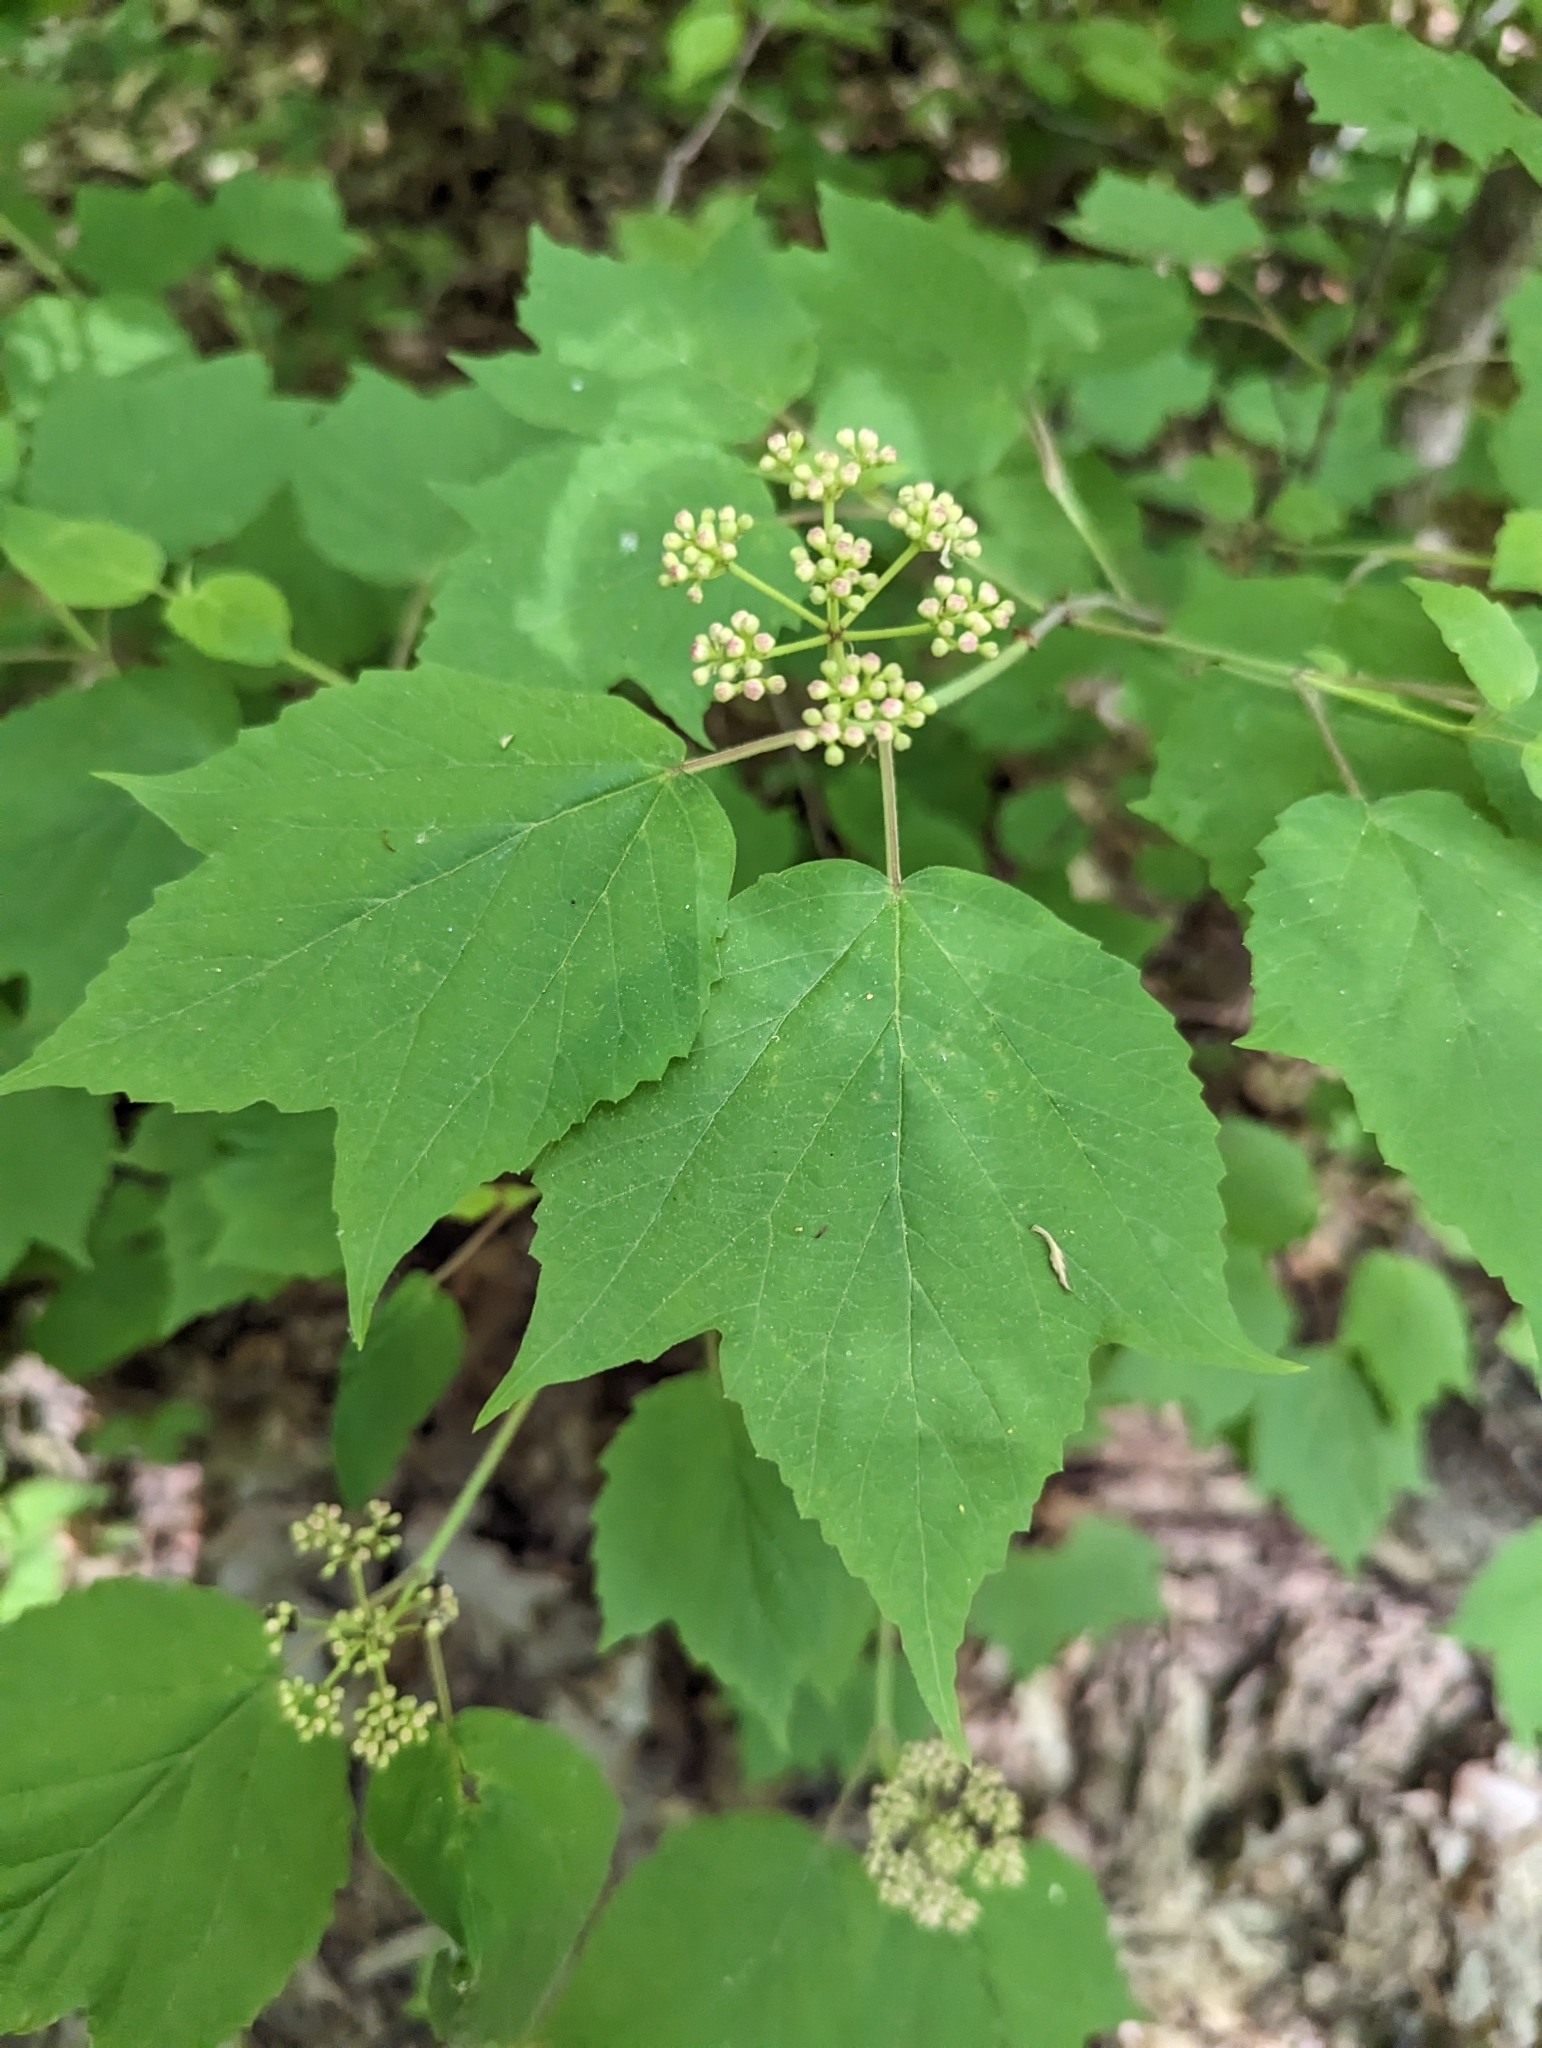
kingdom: Plantae
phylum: Tracheophyta
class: Magnoliopsida
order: Dipsacales
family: Viburnaceae
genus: Viburnum
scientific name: Viburnum acerifolium
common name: Dockmackie
